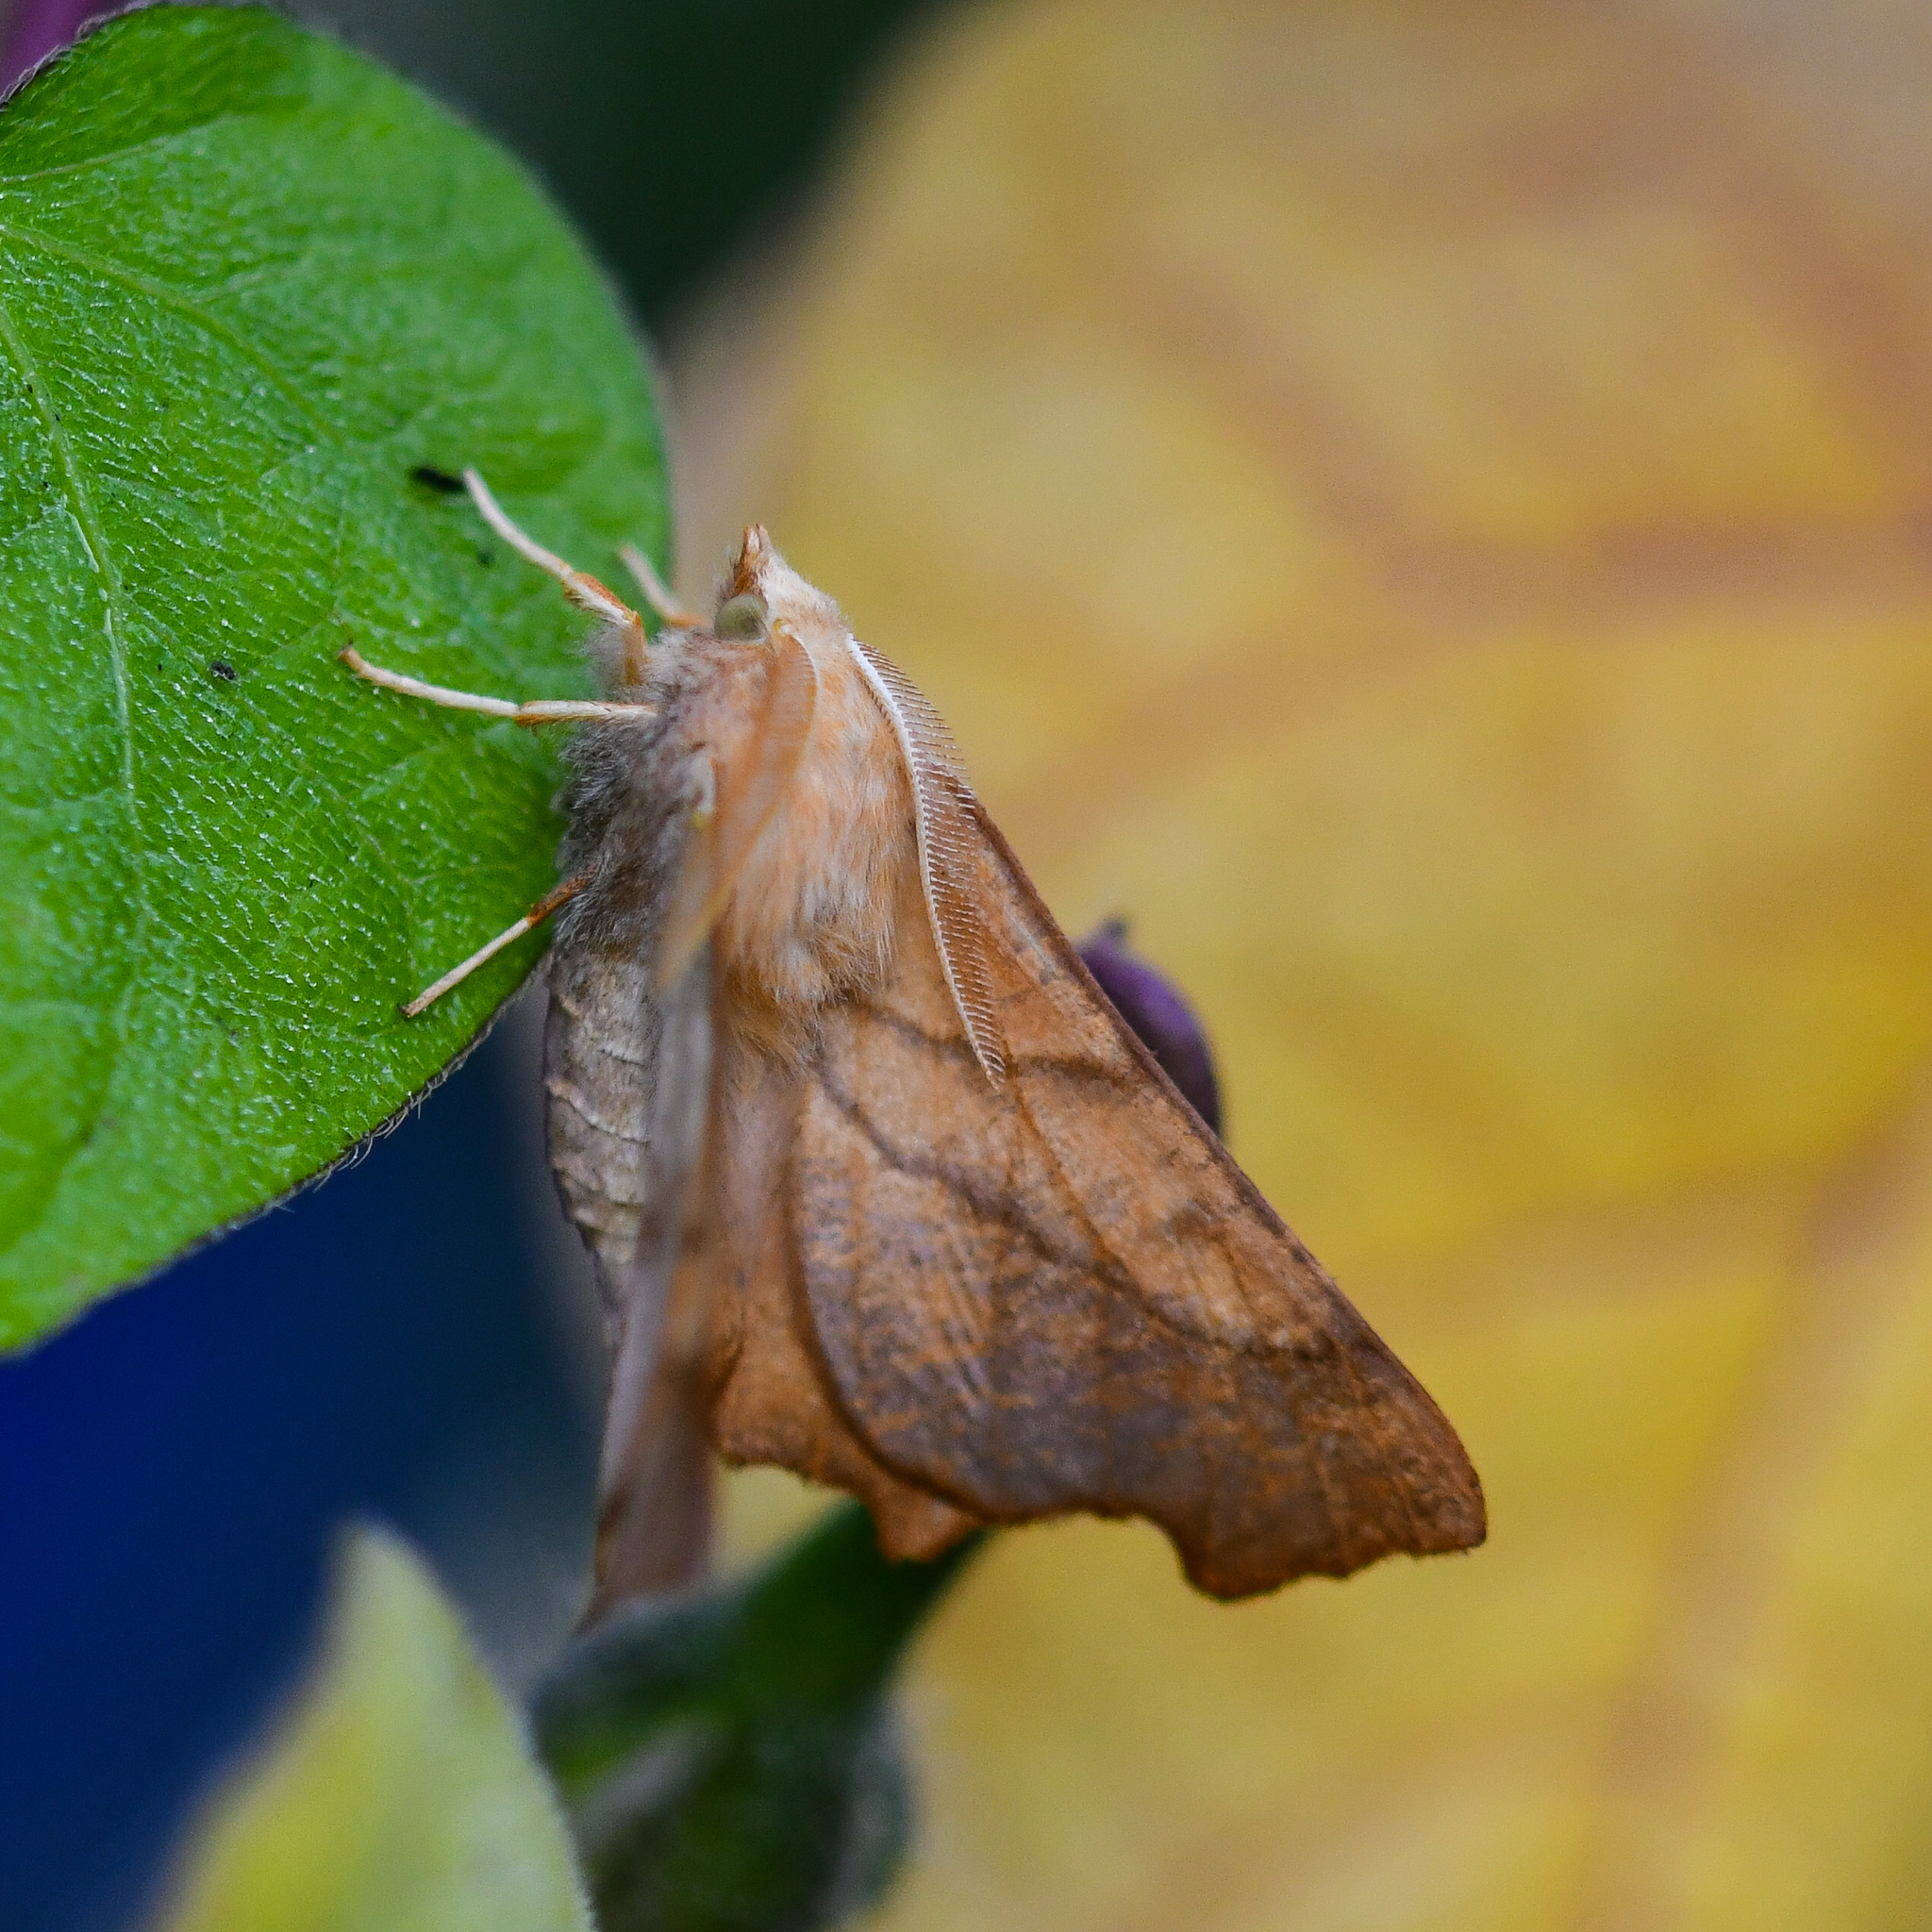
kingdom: Animalia
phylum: Arthropoda
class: Insecta
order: Lepidoptera
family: Geometridae
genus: Ennomos
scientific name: Ennomos fuscantaria
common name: Dusky thorn
